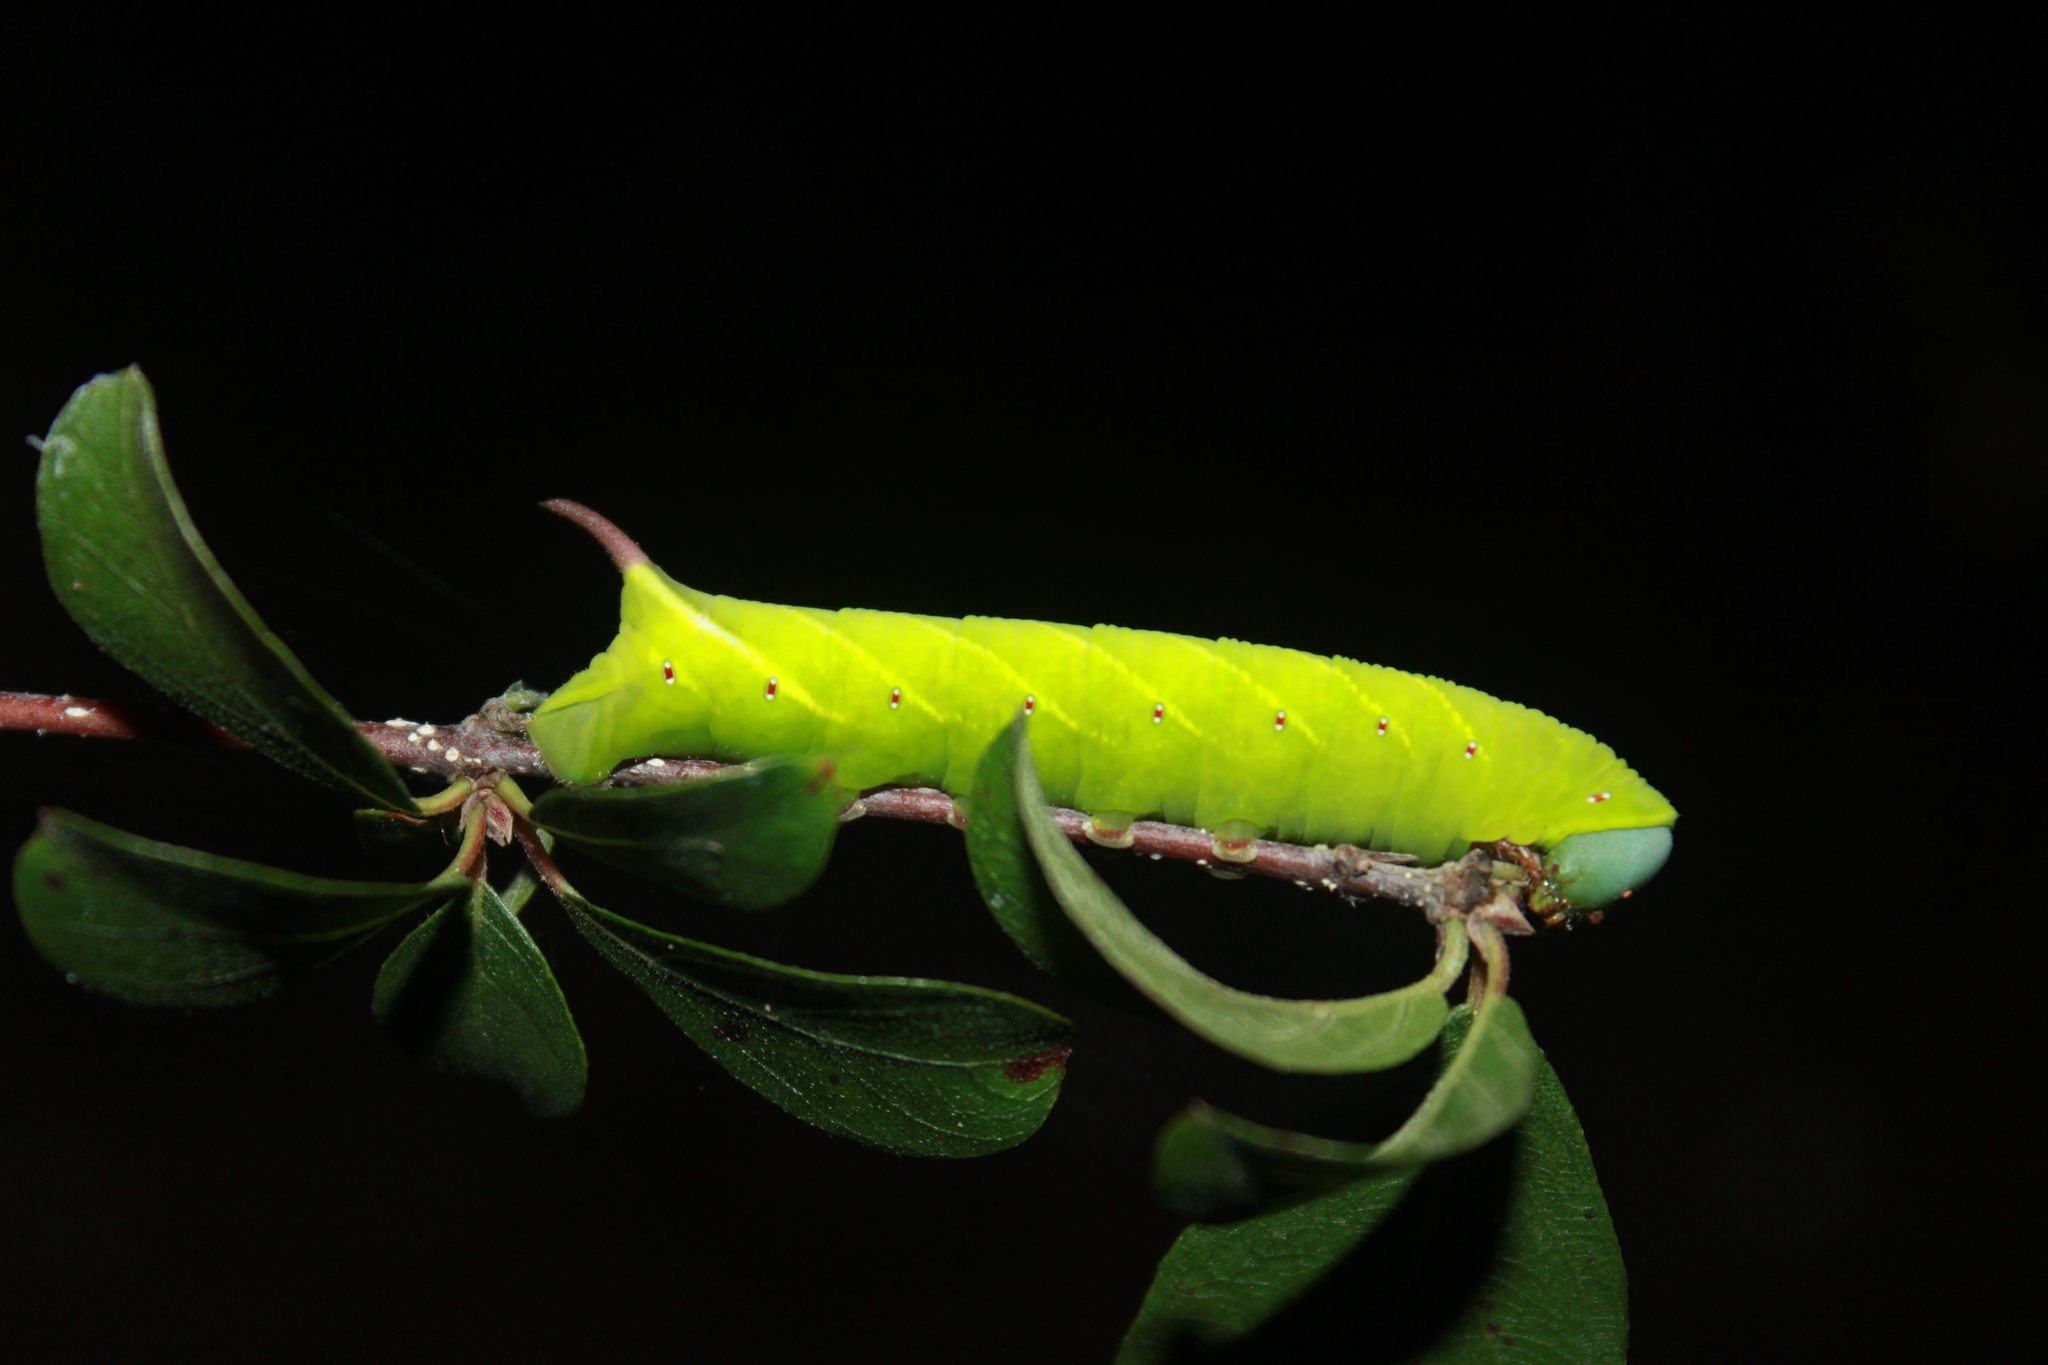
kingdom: Animalia
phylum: Arthropoda
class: Insecta
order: Lepidoptera
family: Sphingidae
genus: Perigonia
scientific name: Perigonia lusca
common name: Half-blind sphinx
